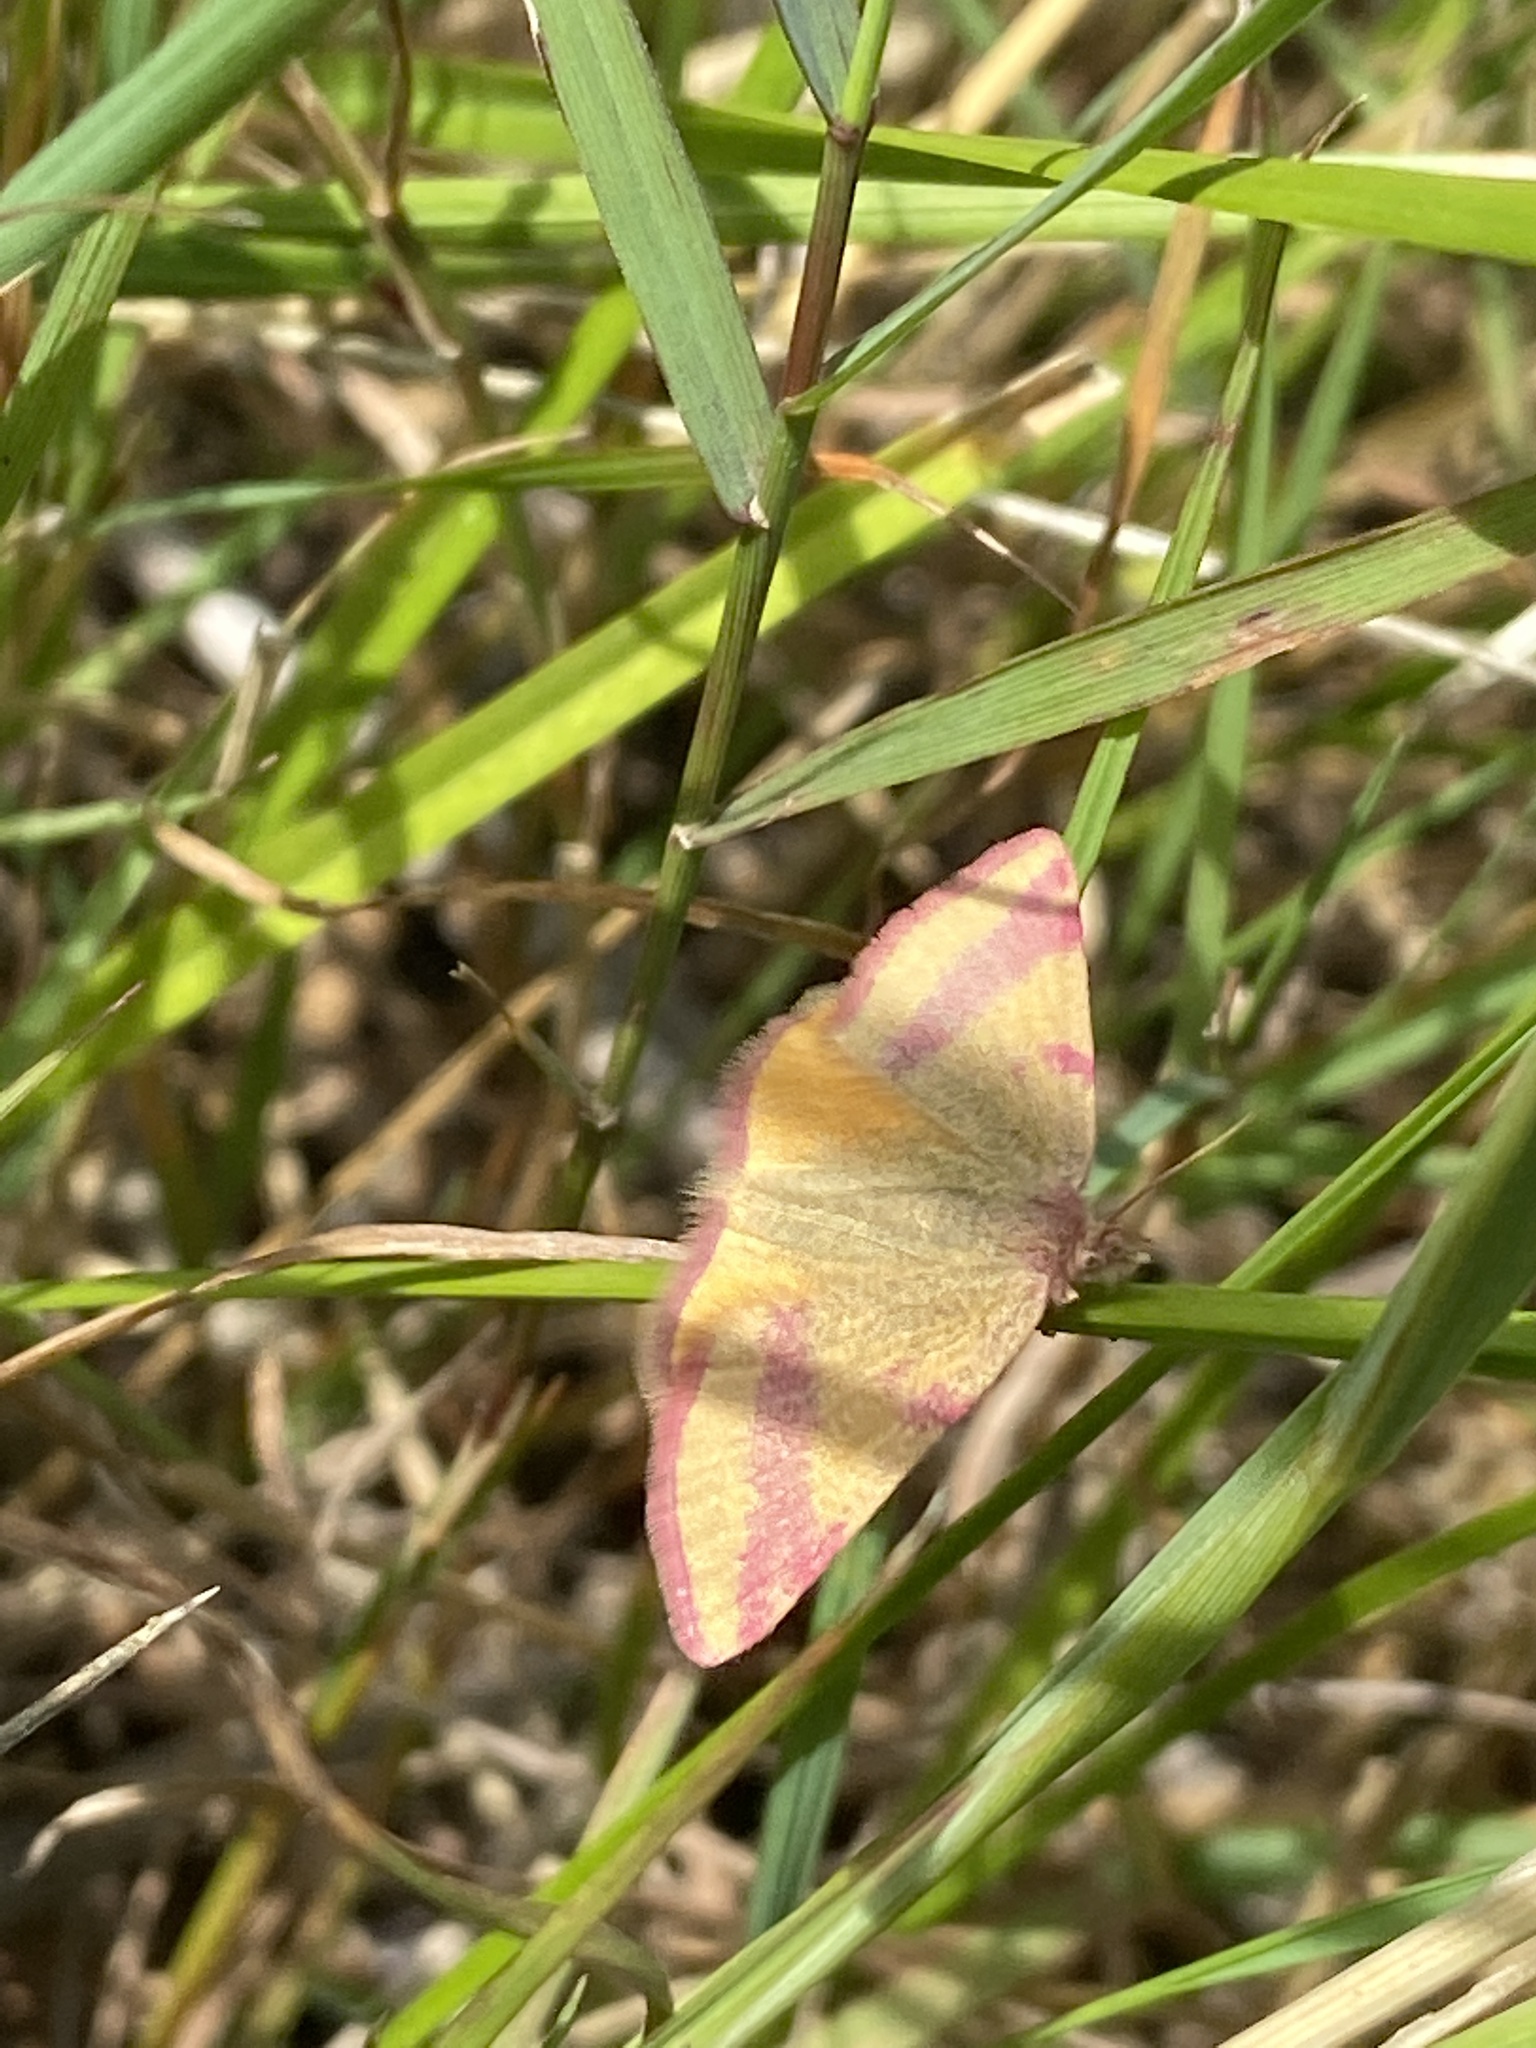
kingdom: Animalia
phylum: Arthropoda
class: Insecta
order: Lepidoptera
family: Geometridae
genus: Lythria
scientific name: Lythria cruentaria
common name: Purple-barred yellow
